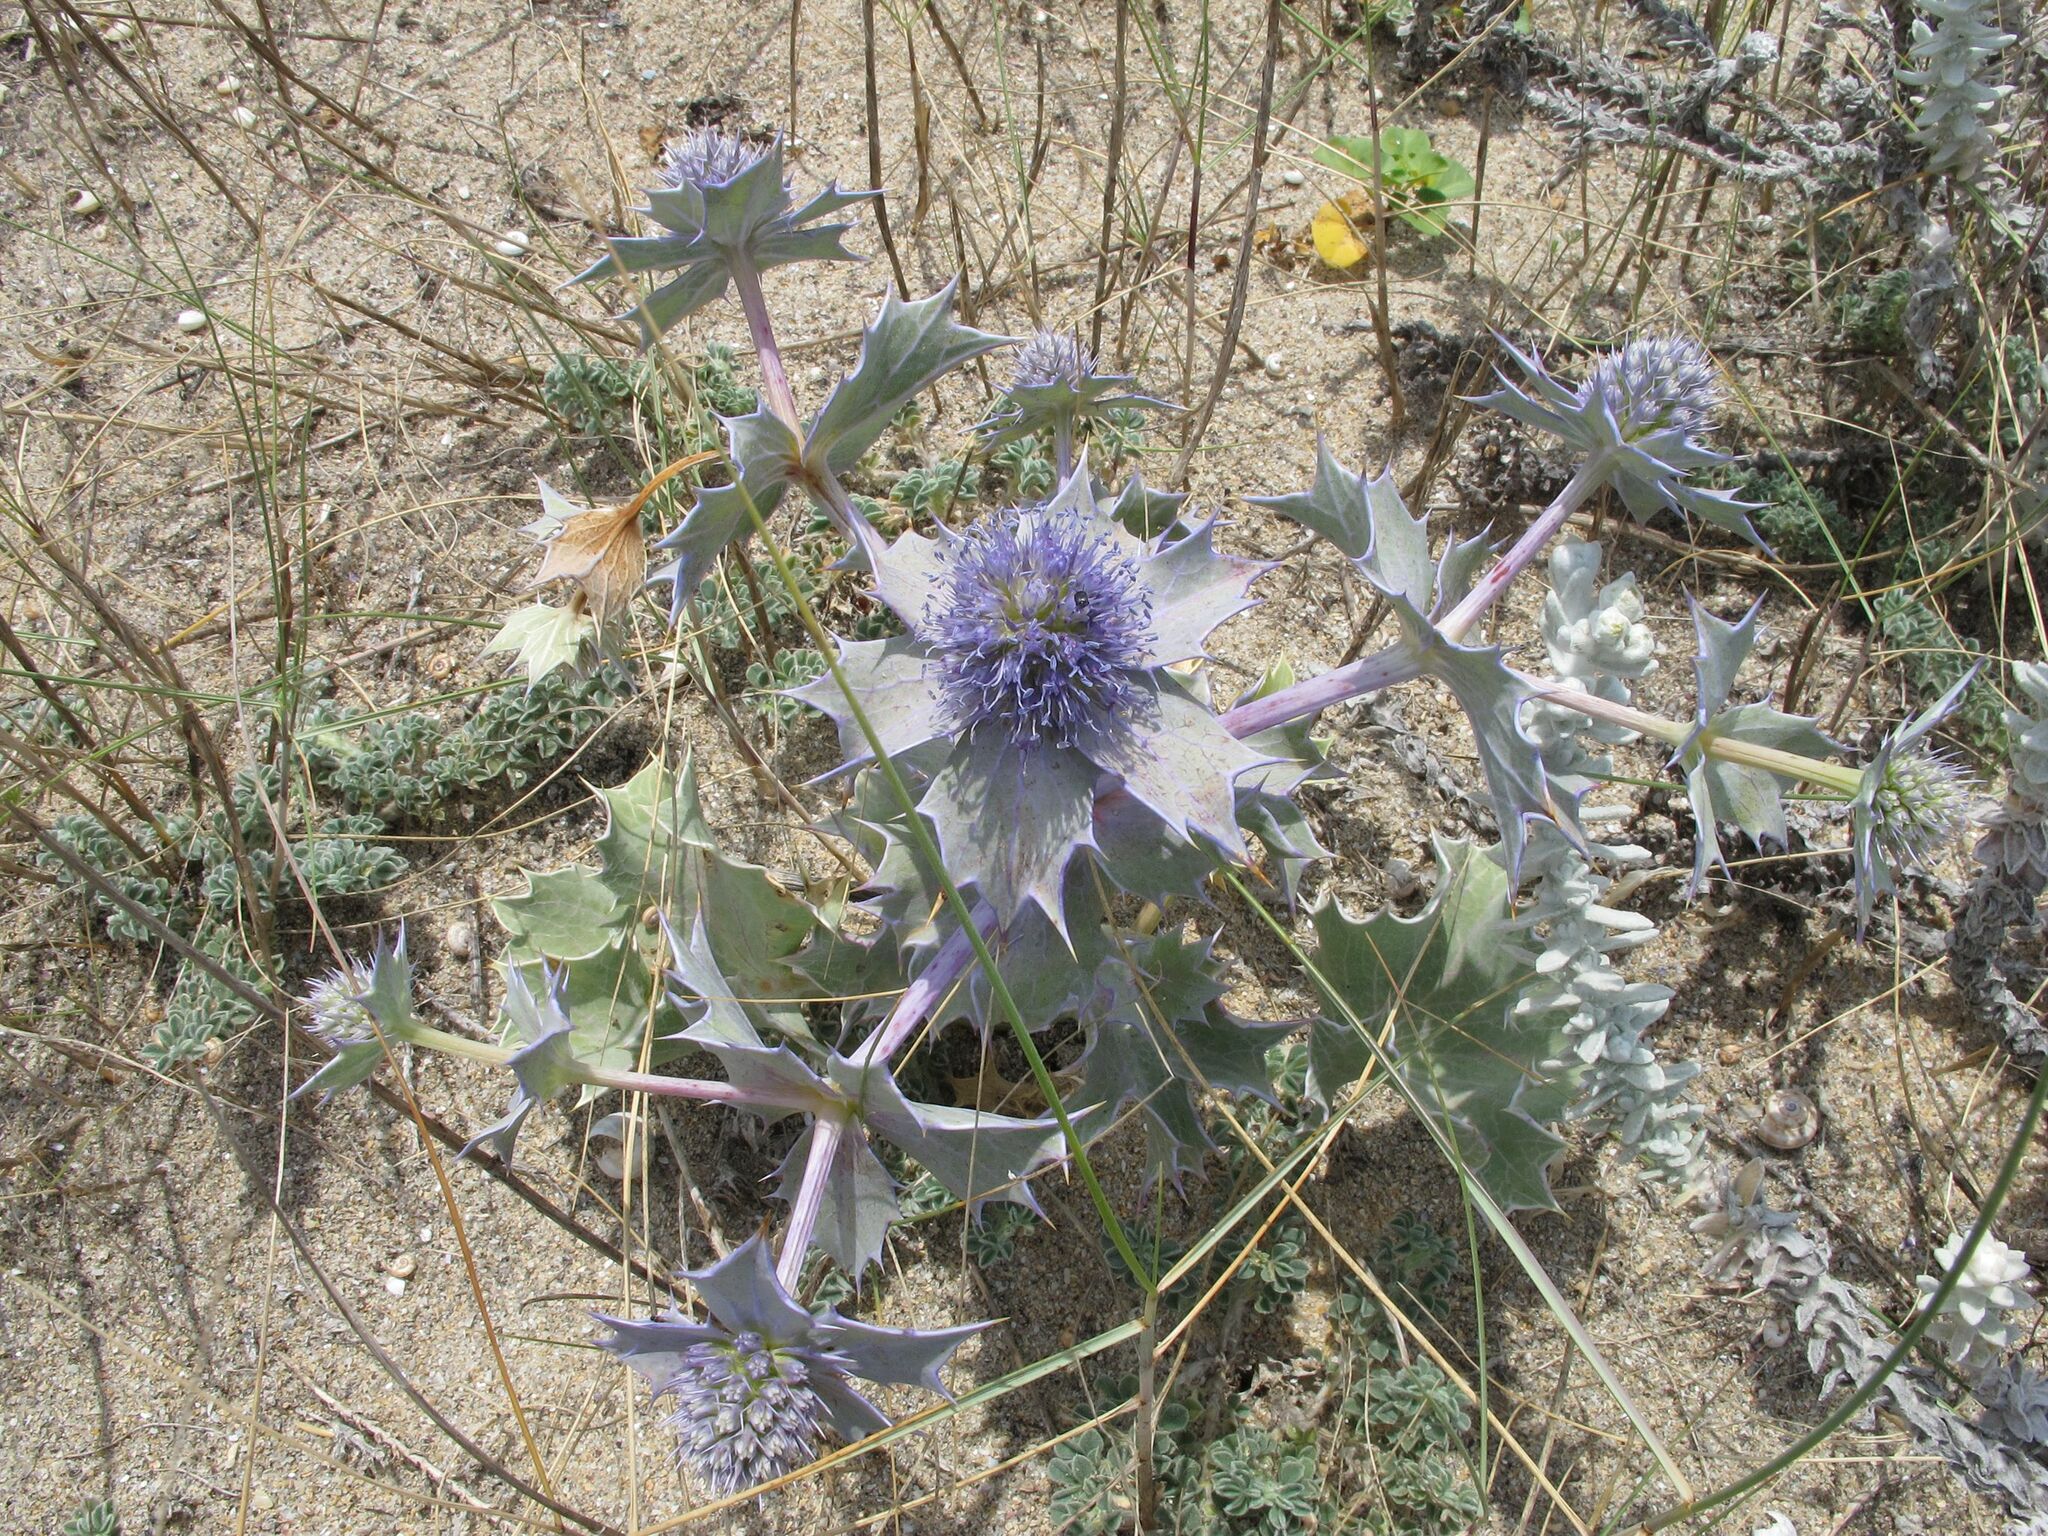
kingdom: Plantae
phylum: Tracheophyta
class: Magnoliopsida
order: Apiales
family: Apiaceae
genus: Eryngium
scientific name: Eryngium maritimum
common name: Sea-holly
